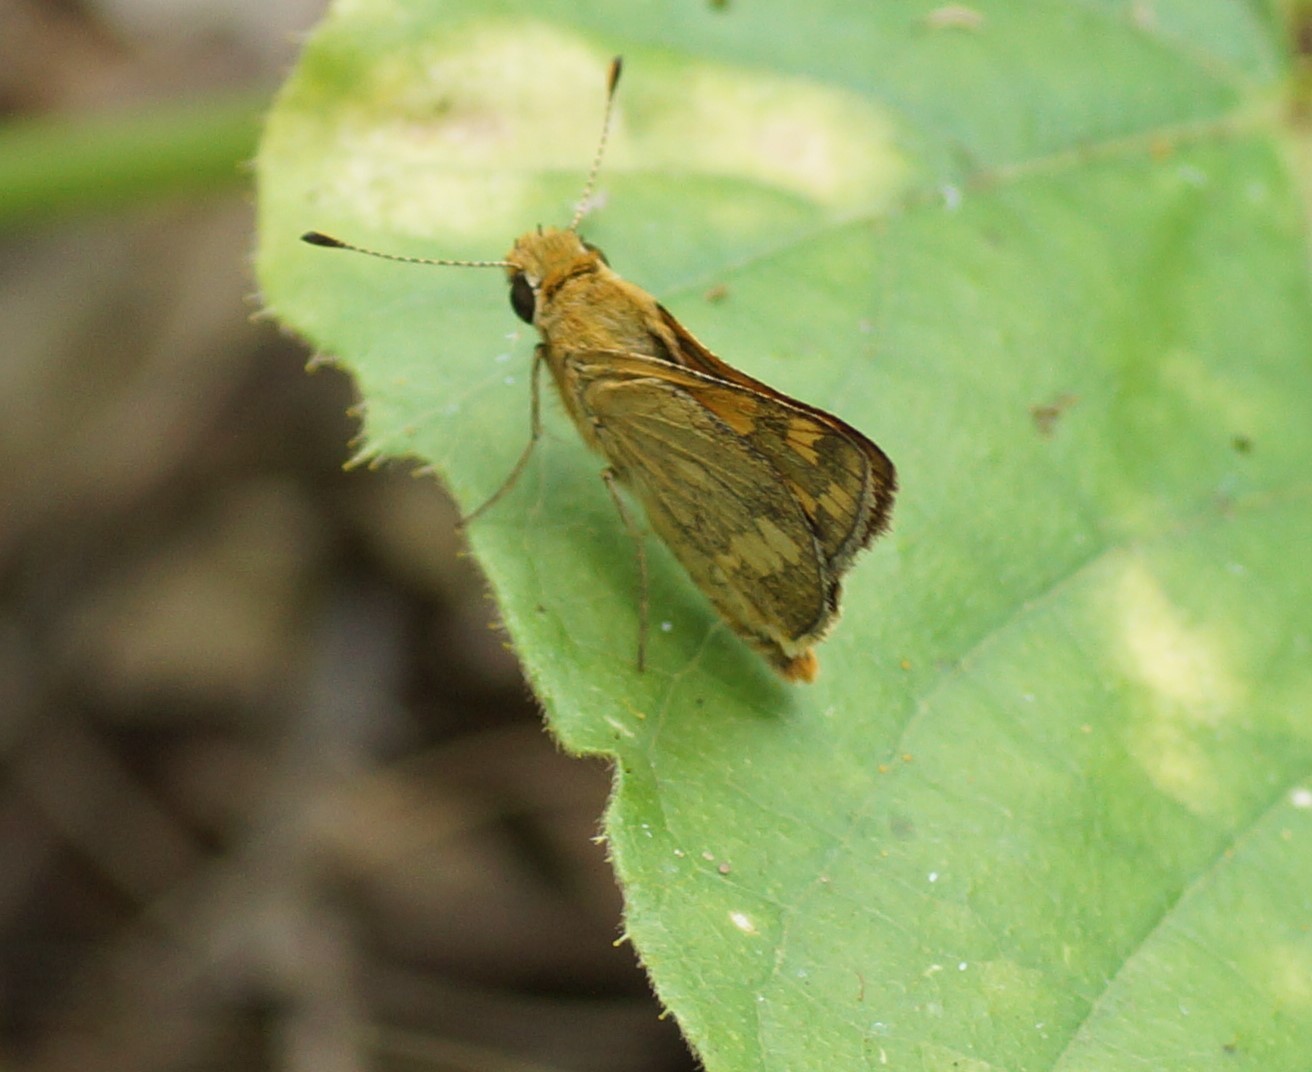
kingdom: Animalia
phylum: Arthropoda
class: Insecta
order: Lepidoptera
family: Hesperiidae
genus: Taractrocera
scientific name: Taractrocera ina
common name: Ina grass-dart
